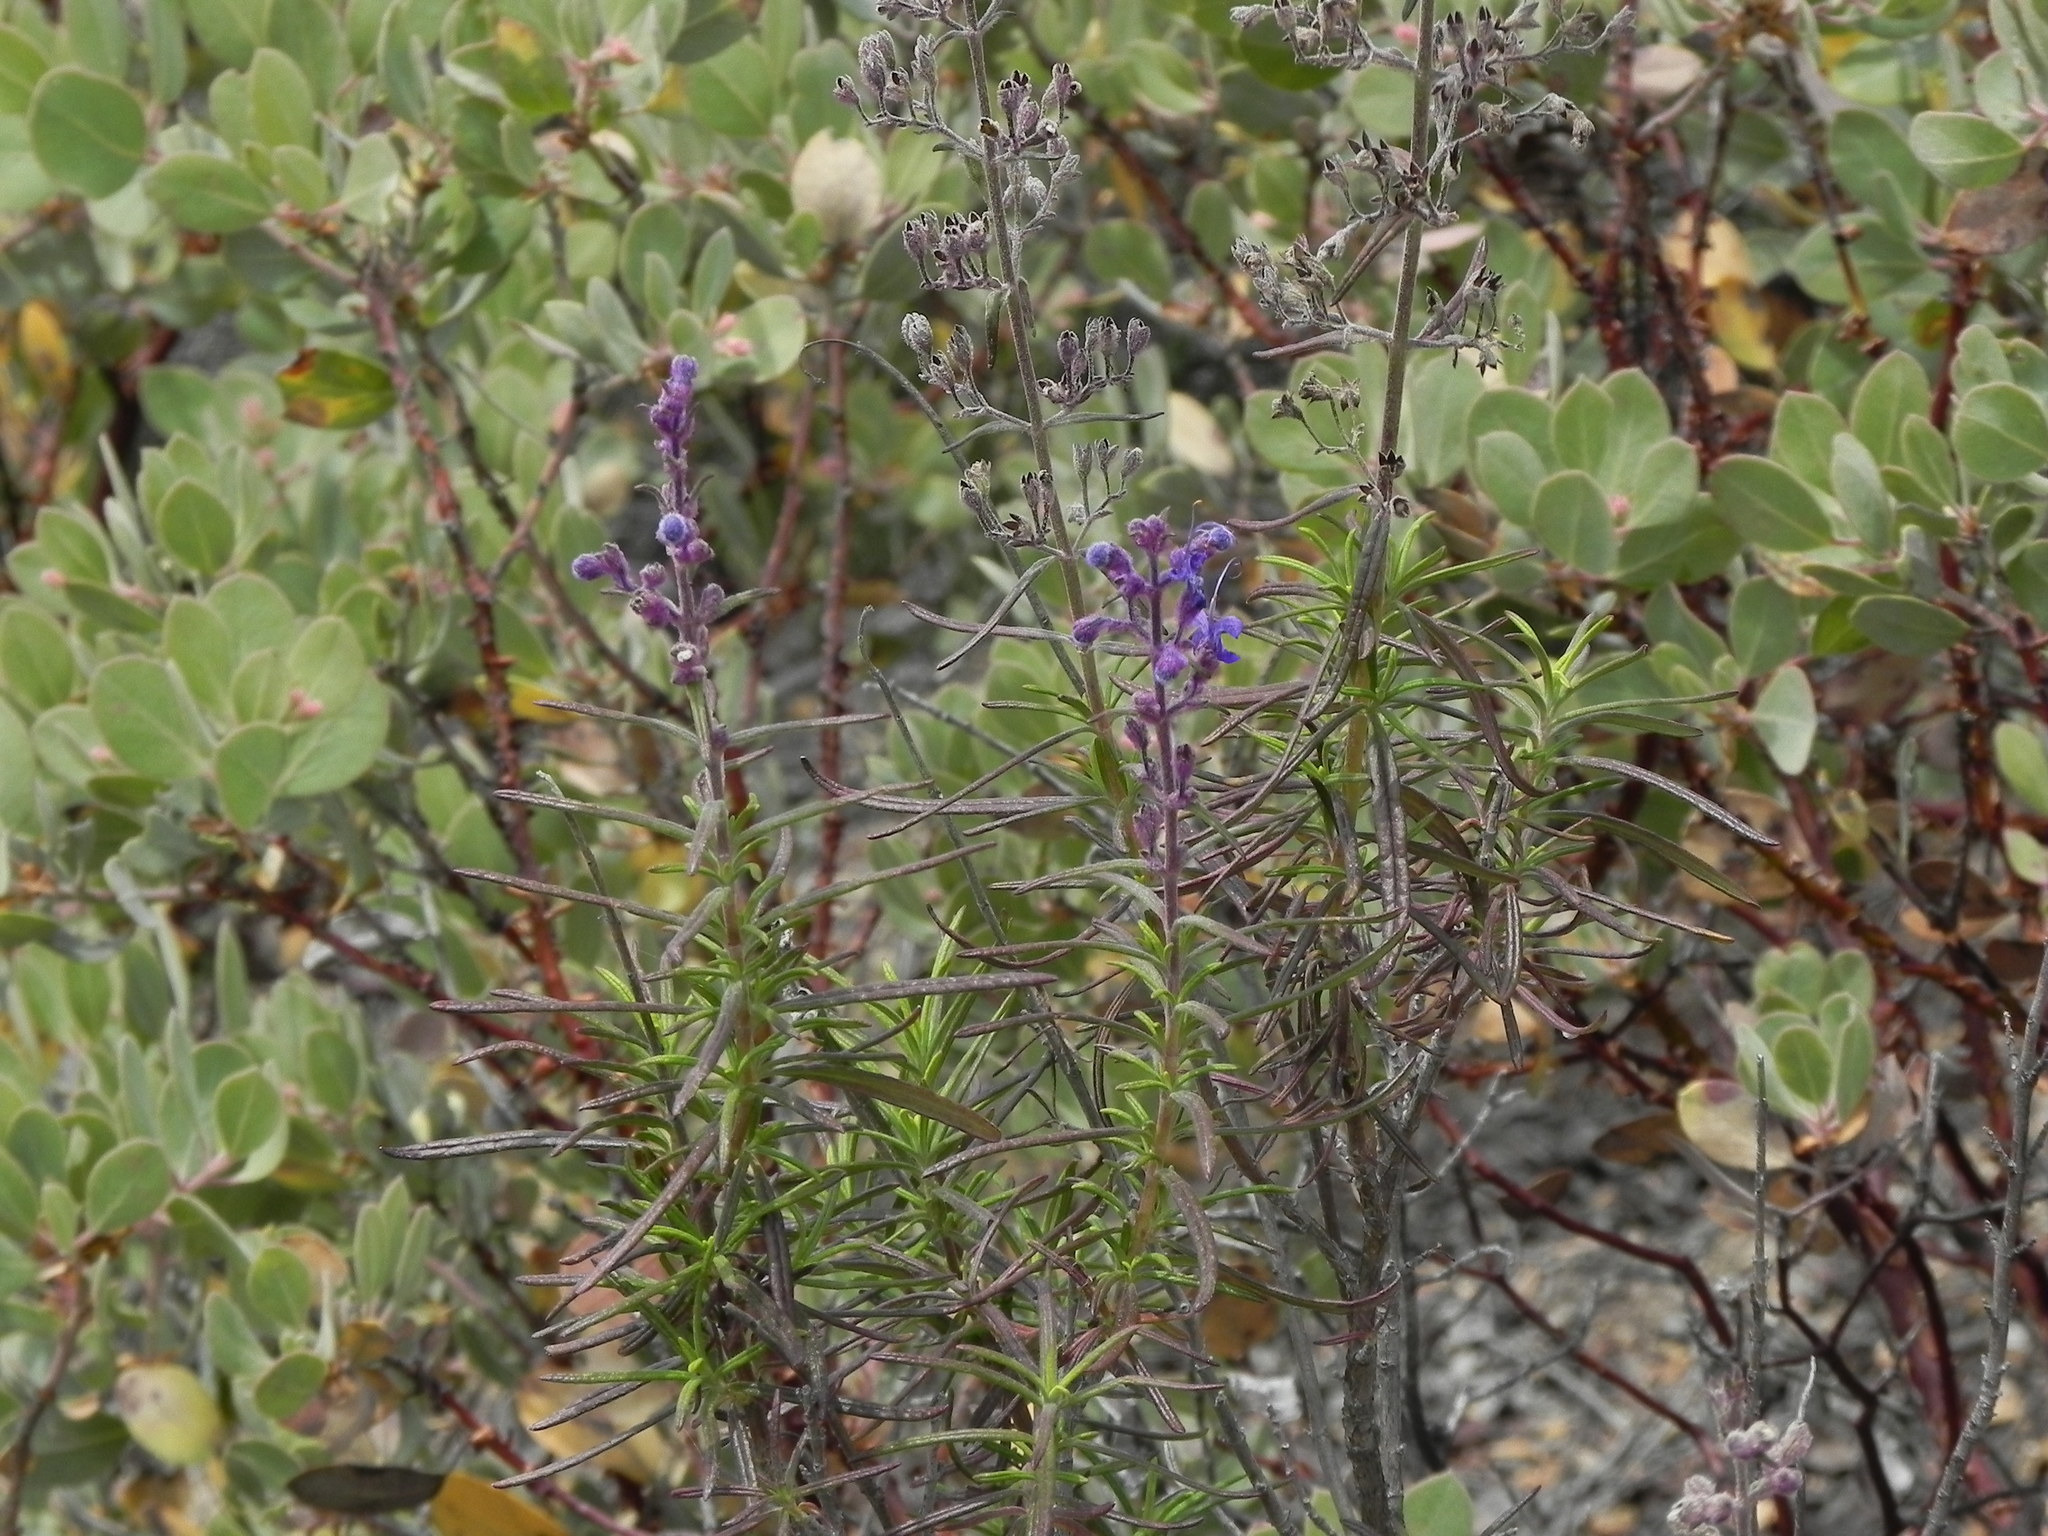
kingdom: Plantae
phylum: Tracheophyta
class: Magnoliopsida
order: Lamiales
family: Lamiaceae
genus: Trichostema
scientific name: Trichostema parishii
